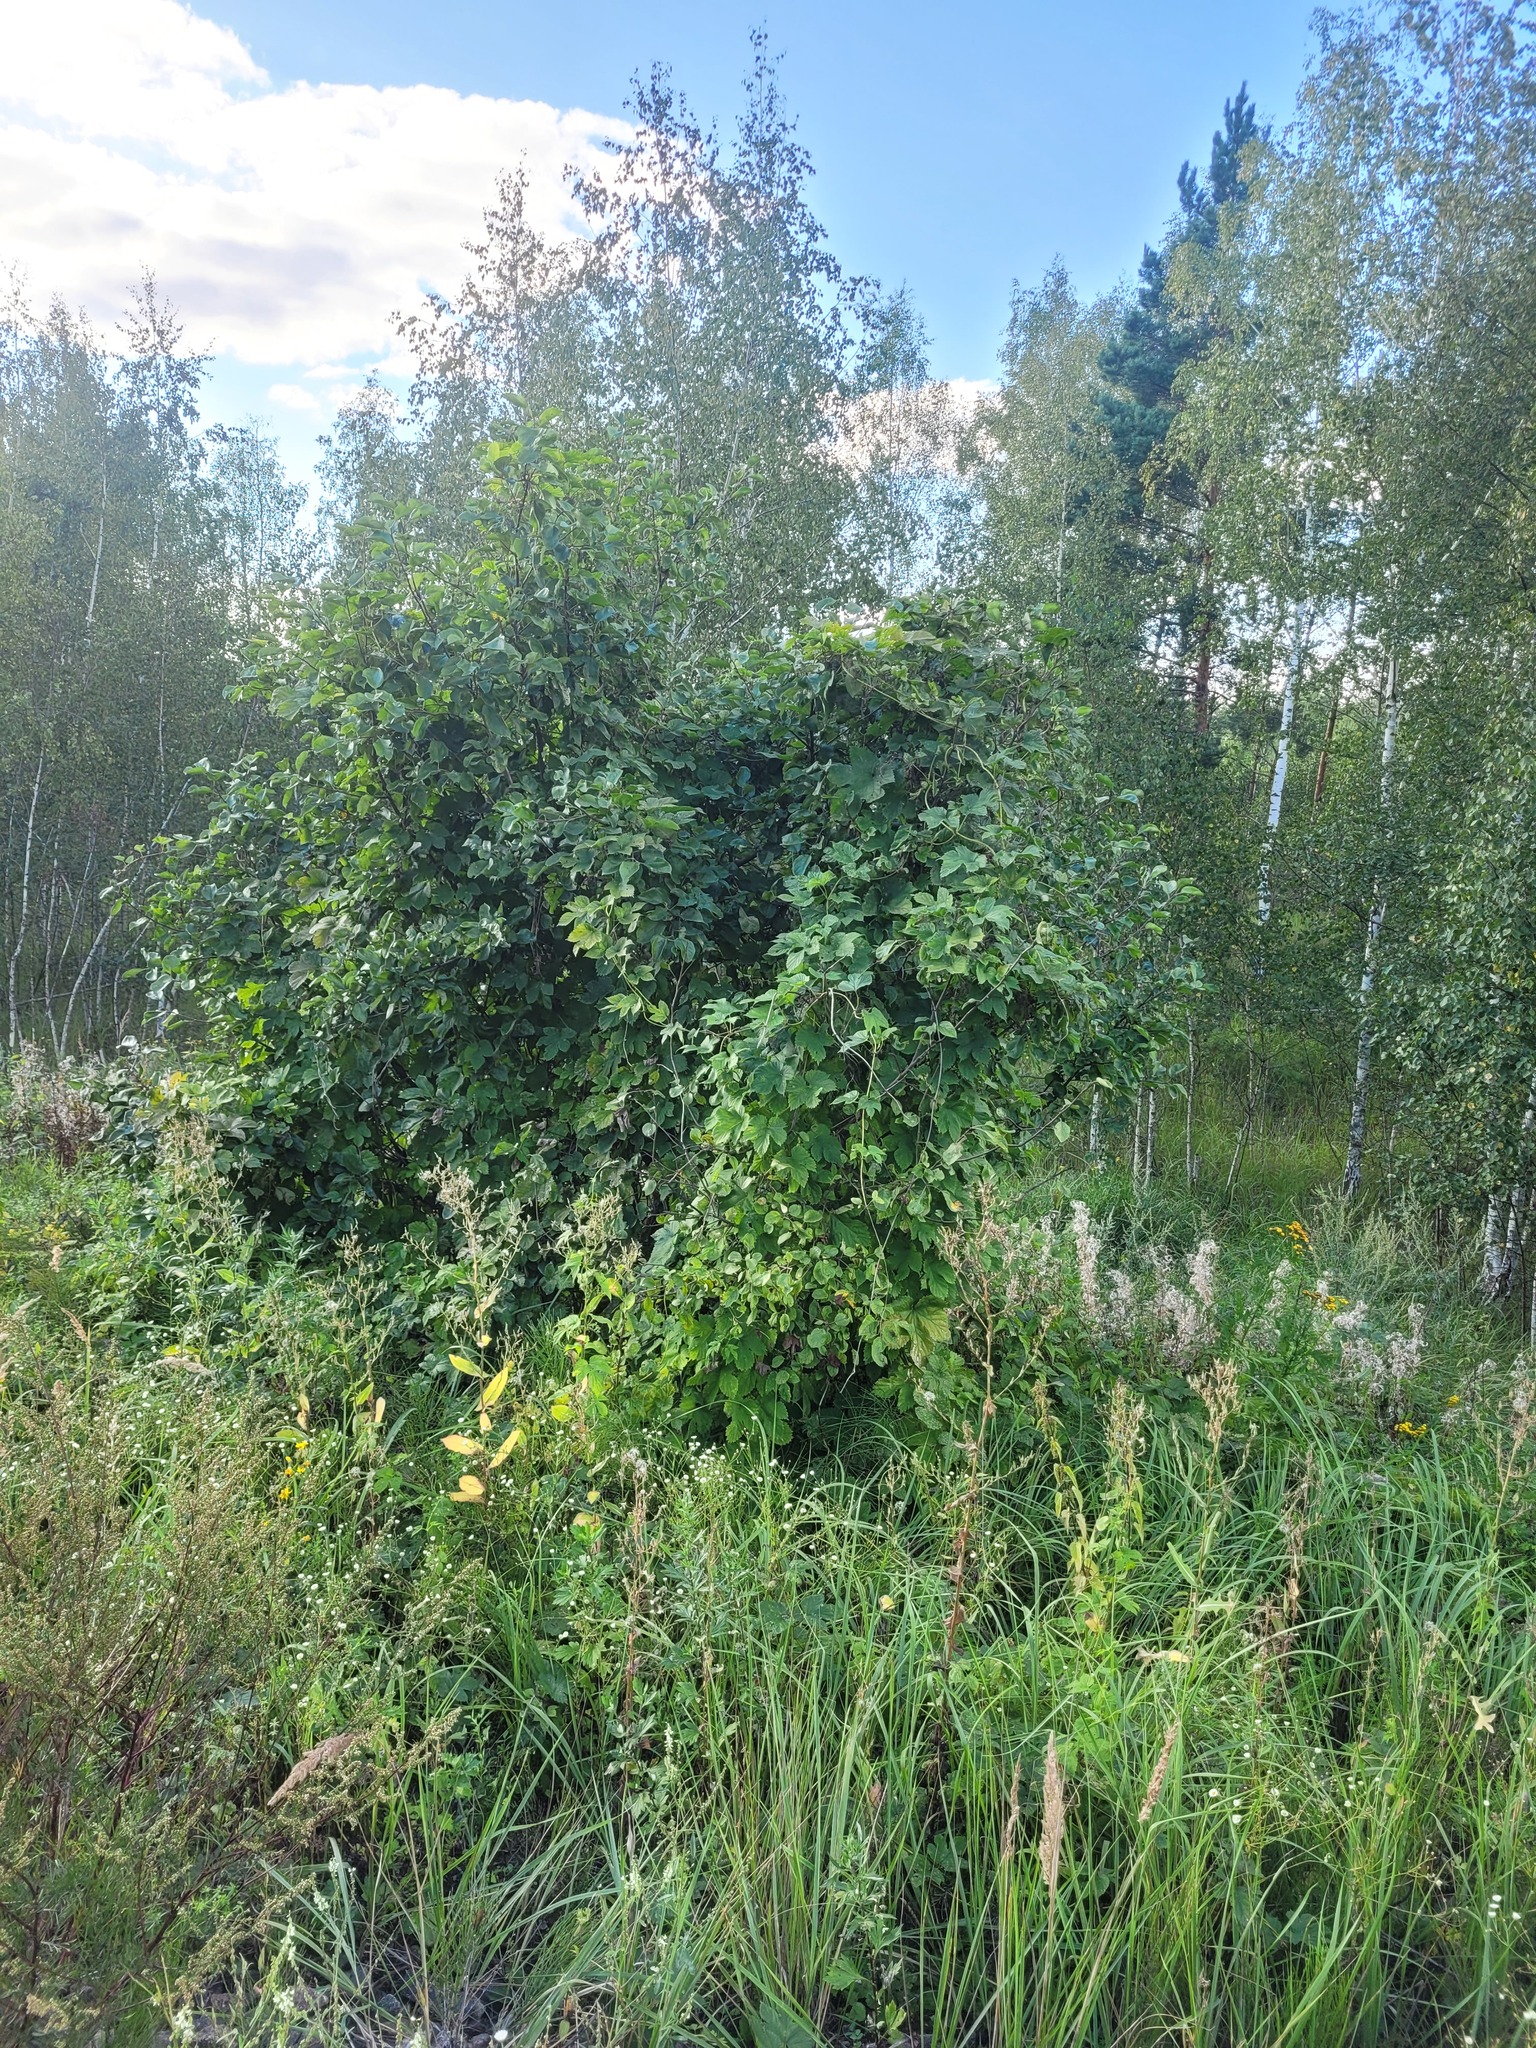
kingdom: Plantae
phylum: Tracheophyta
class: Magnoliopsida
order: Rosales
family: Cannabaceae
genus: Humulus
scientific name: Humulus lupulus
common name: Hop
